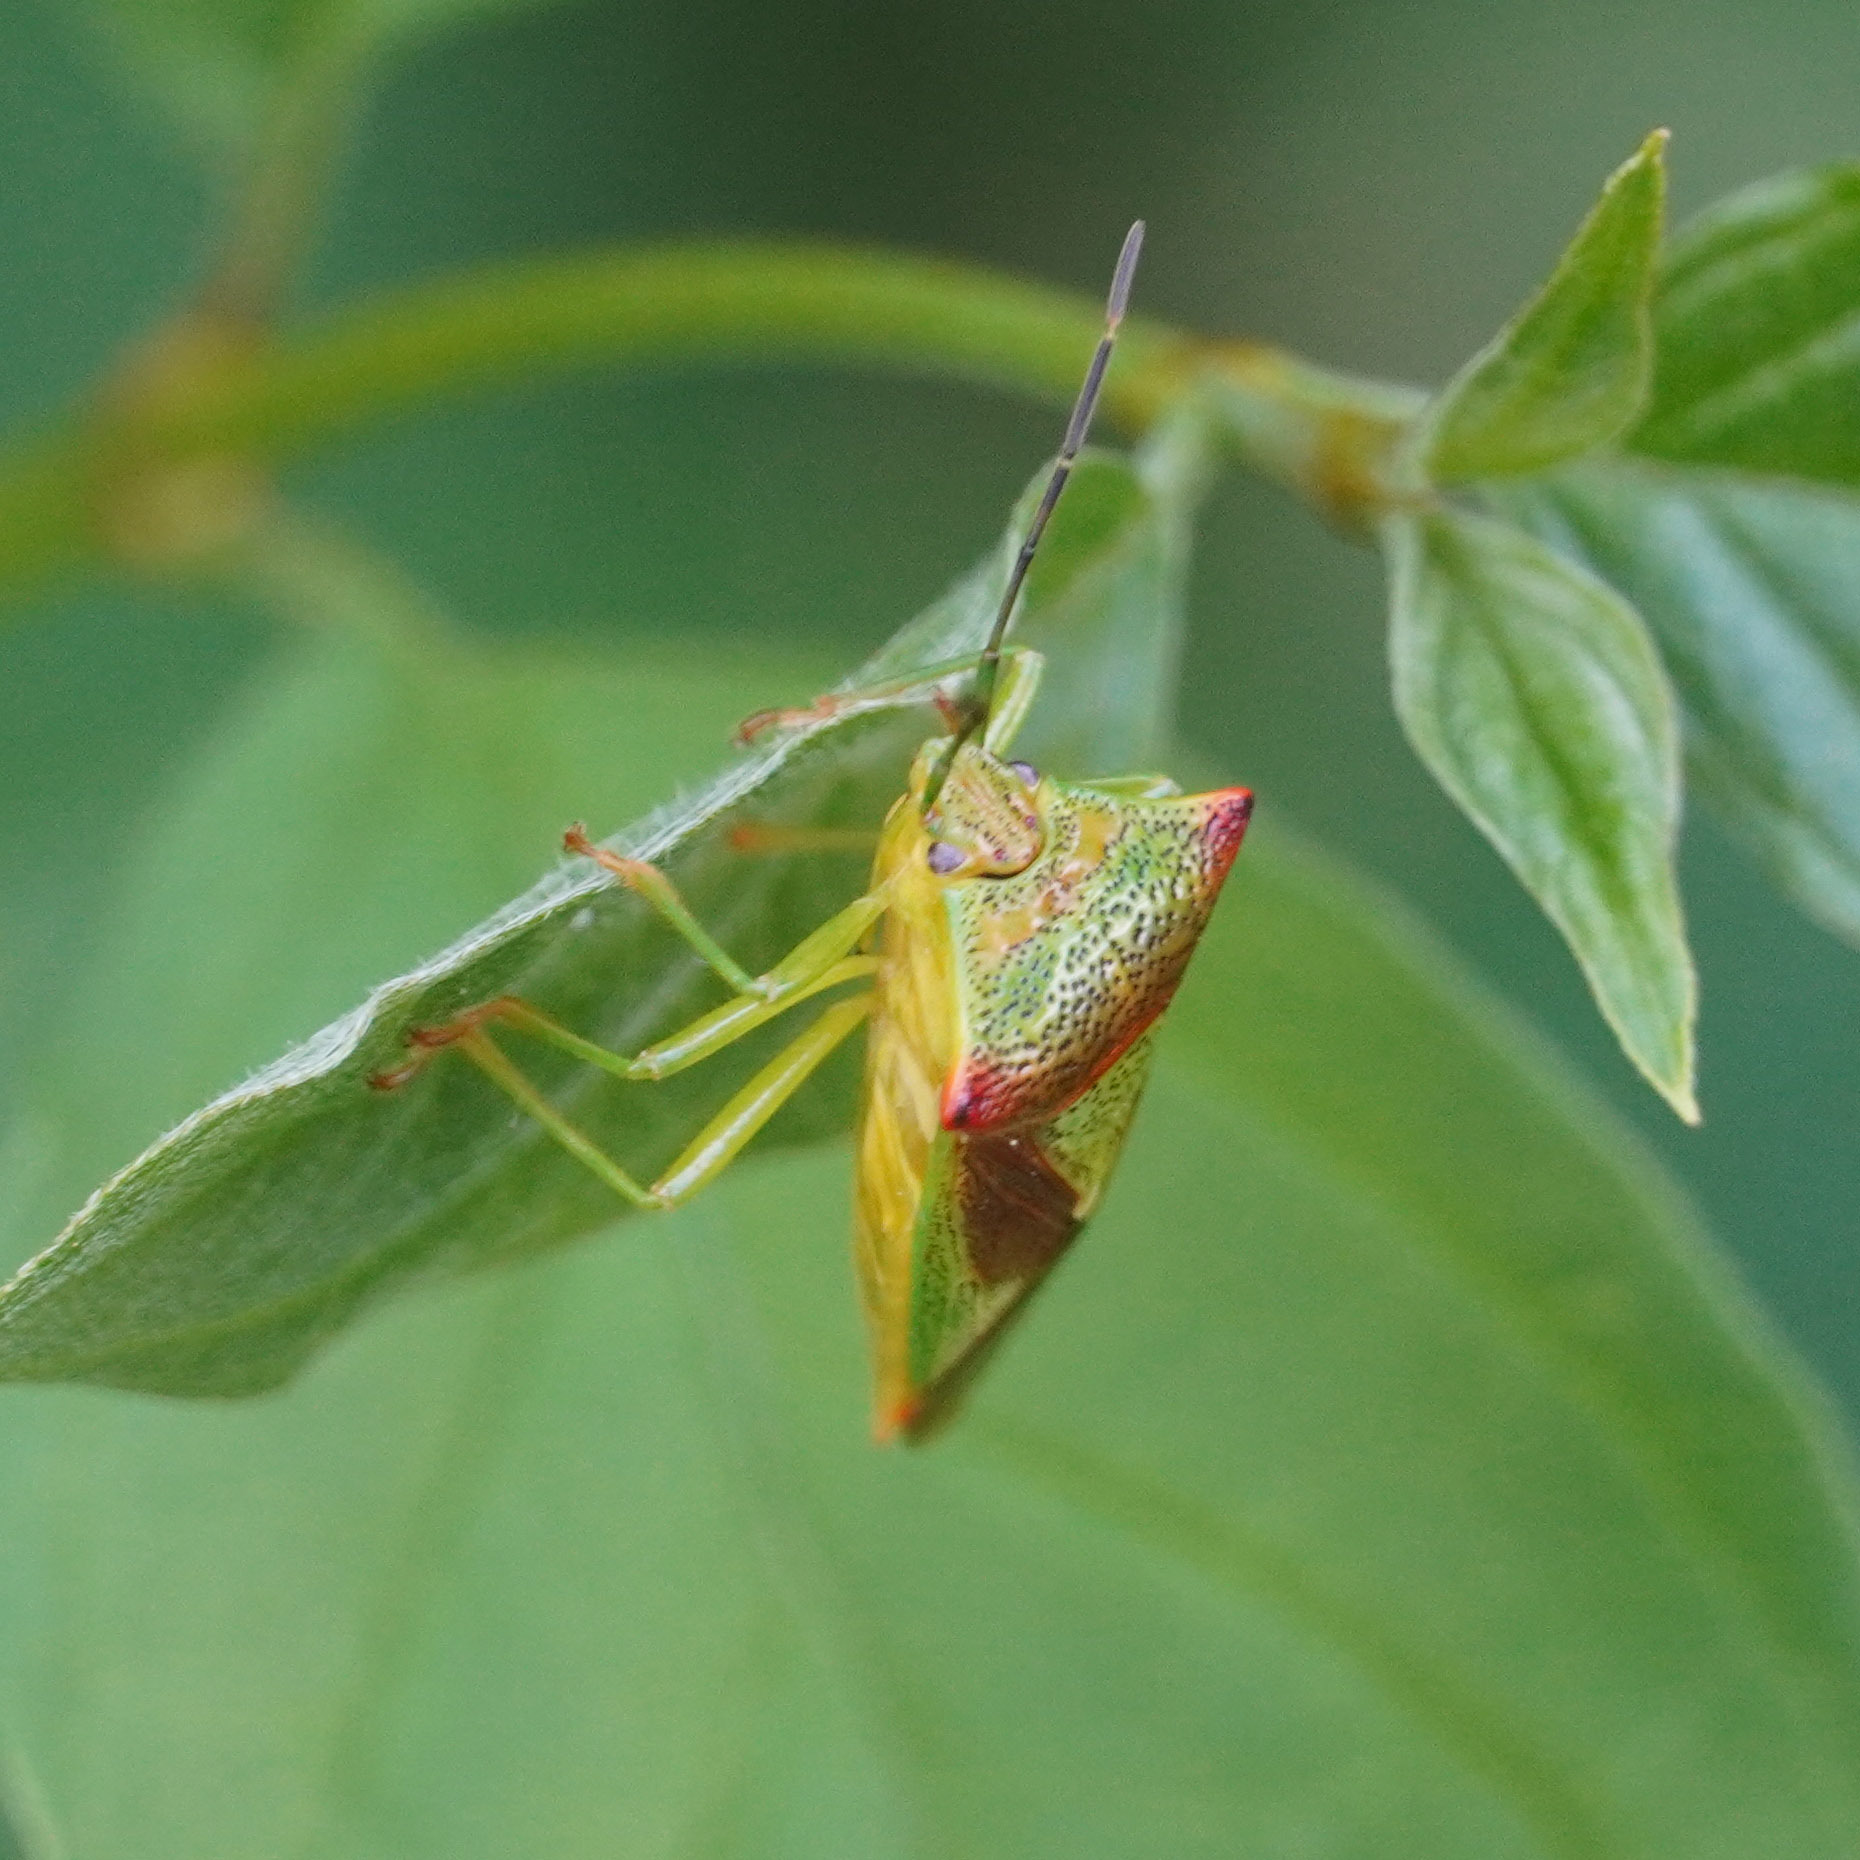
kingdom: Animalia
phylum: Arthropoda
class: Insecta
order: Hemiptera
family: Acanthosomatidae
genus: Acanthosoma
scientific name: Acanthosoma haemorrhoidale
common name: Hawthorn shieldbug
